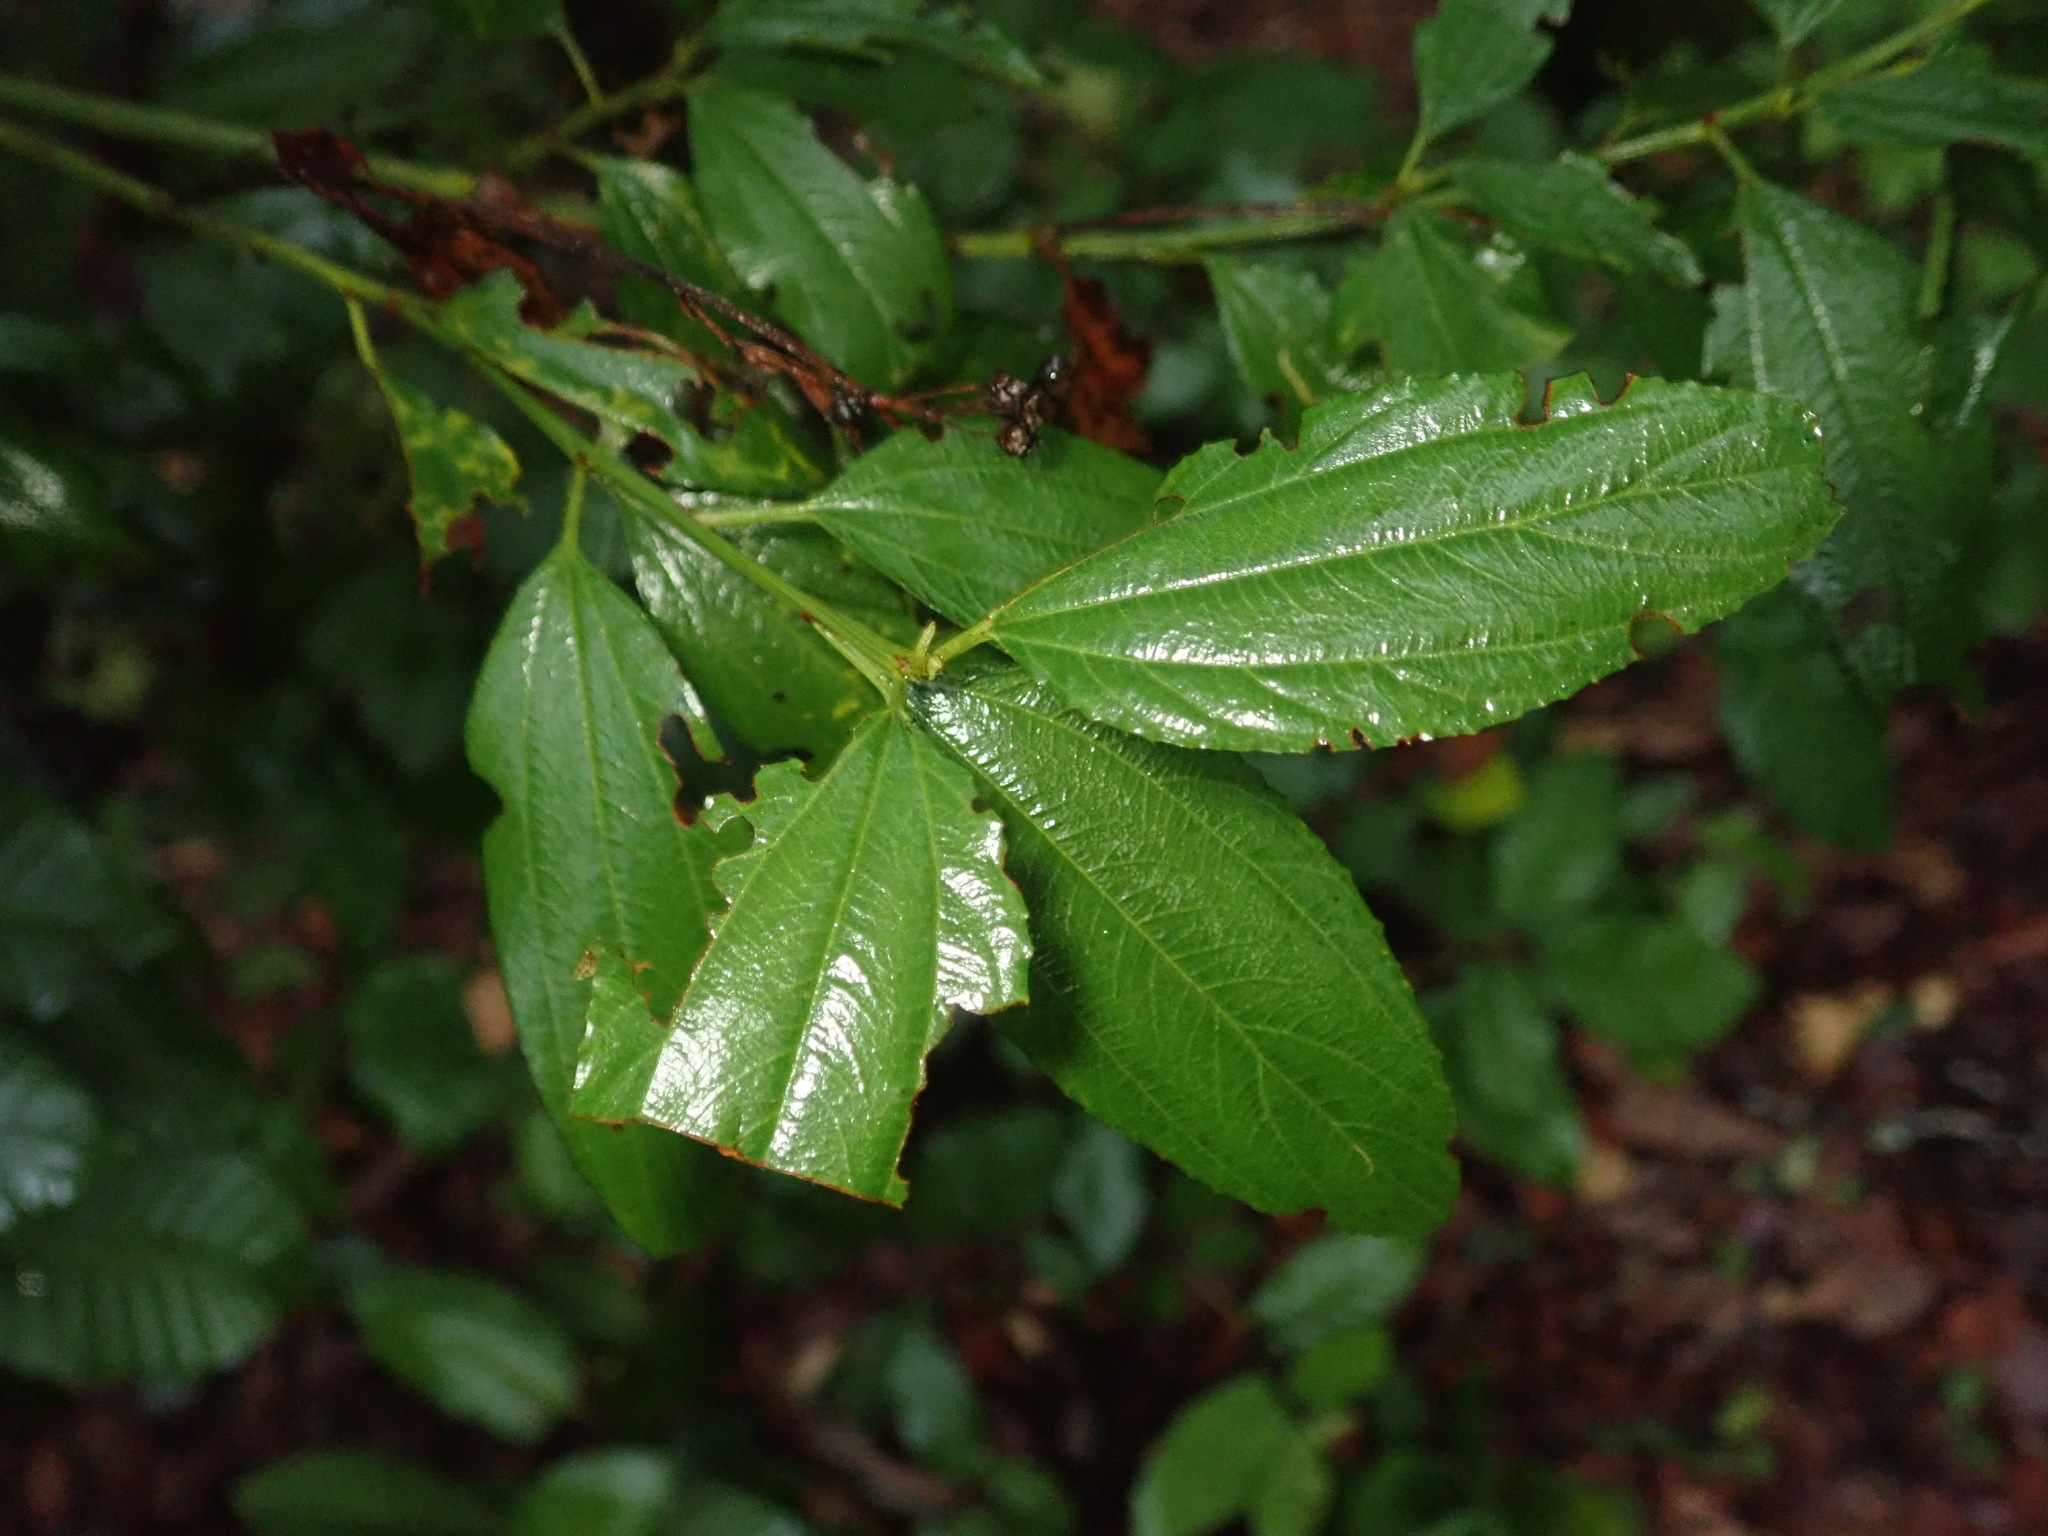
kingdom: Plantae
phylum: Tracheophyta
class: Magnoliopsida
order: Rosales
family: Rhamnaceae
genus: Ceanothus
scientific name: Ceanothus thyrsiflorus
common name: California-lilac
